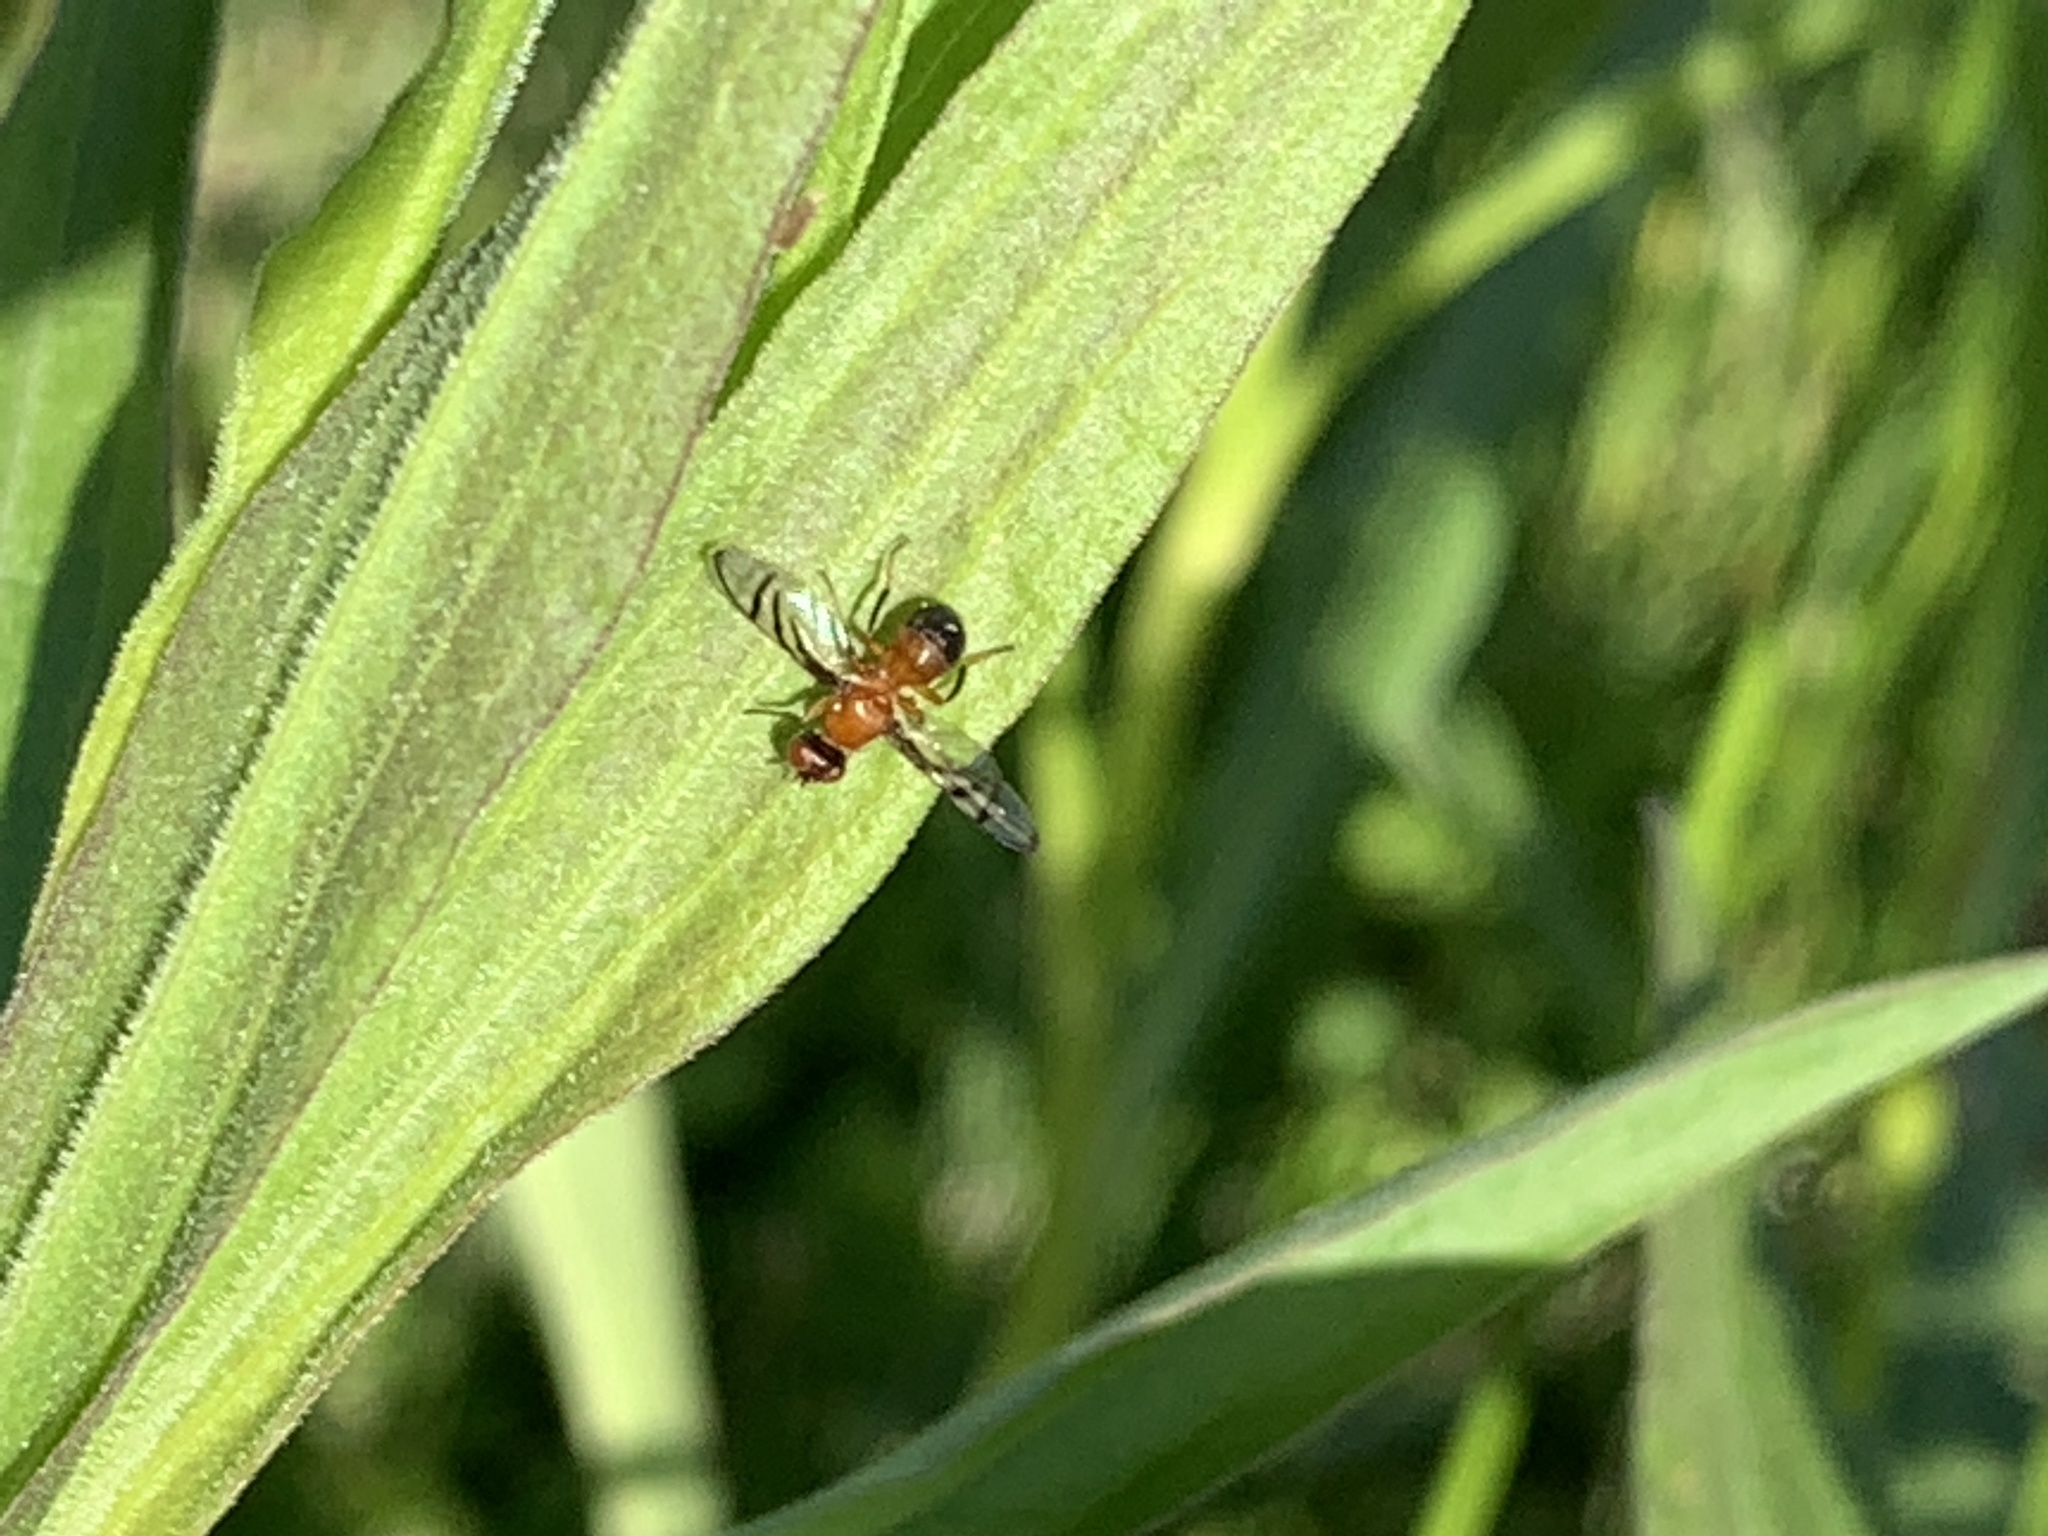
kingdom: Animalia
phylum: Arthropoda
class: Insecta
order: Diptera
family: Platystomatidae
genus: Rivellia
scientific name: Rivellia munda
